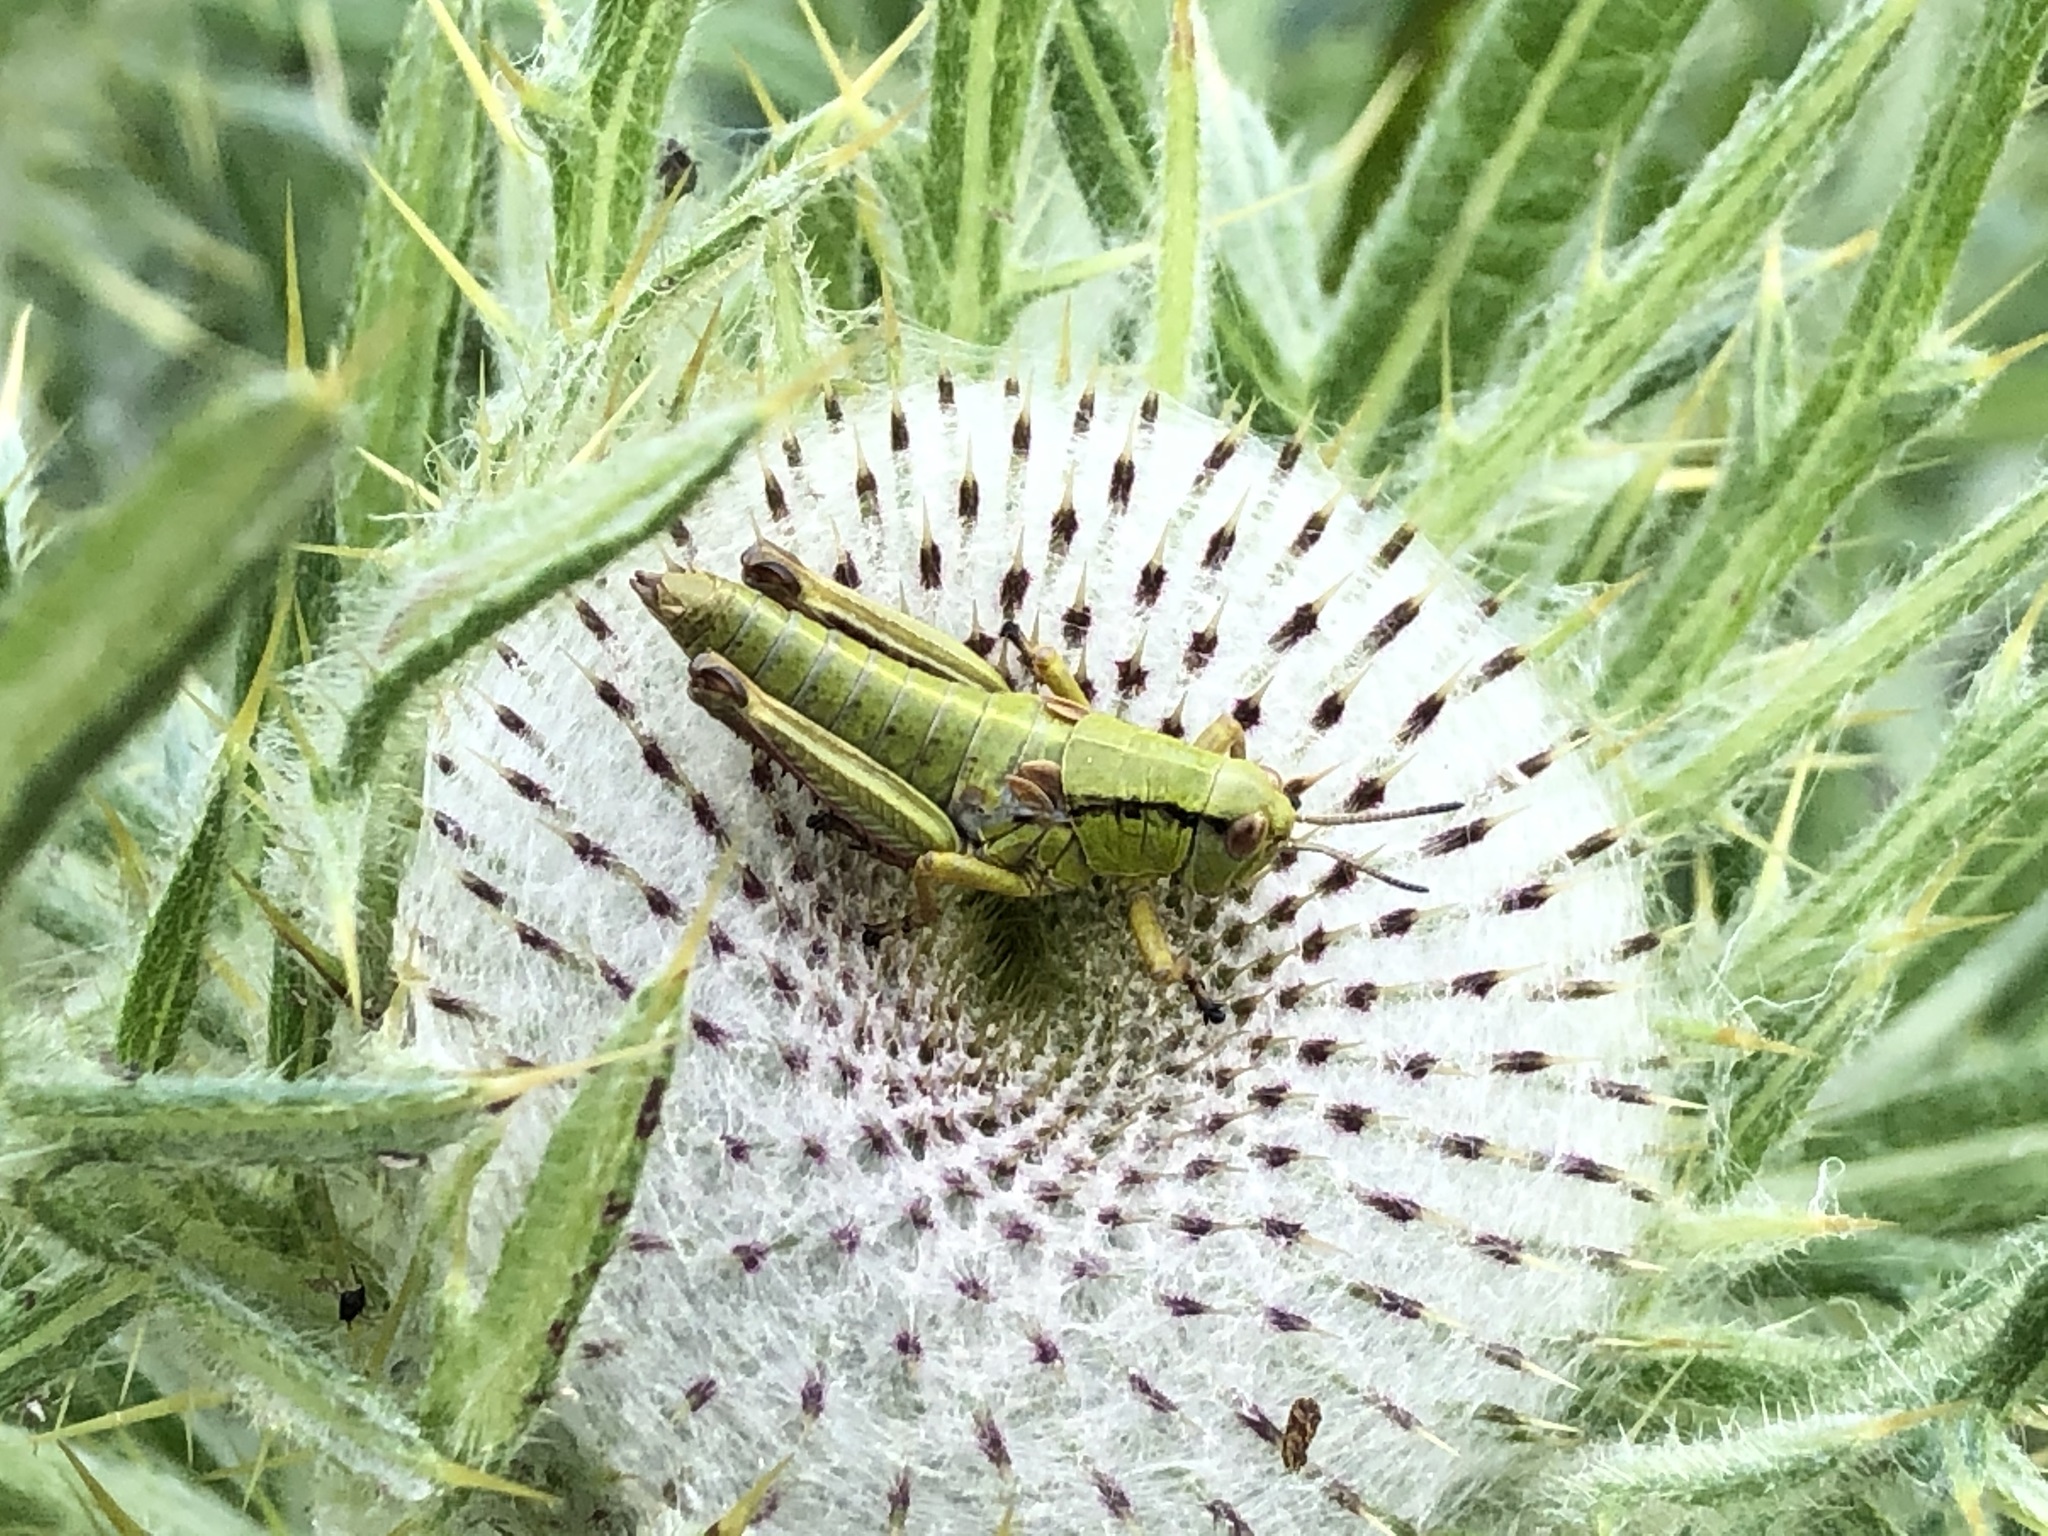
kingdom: Animalia
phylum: Arthropoda
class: Insecta
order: Orthoptera
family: Acrididae
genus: Miramella
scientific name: Miramella alpina
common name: Green mountain grasshopper
